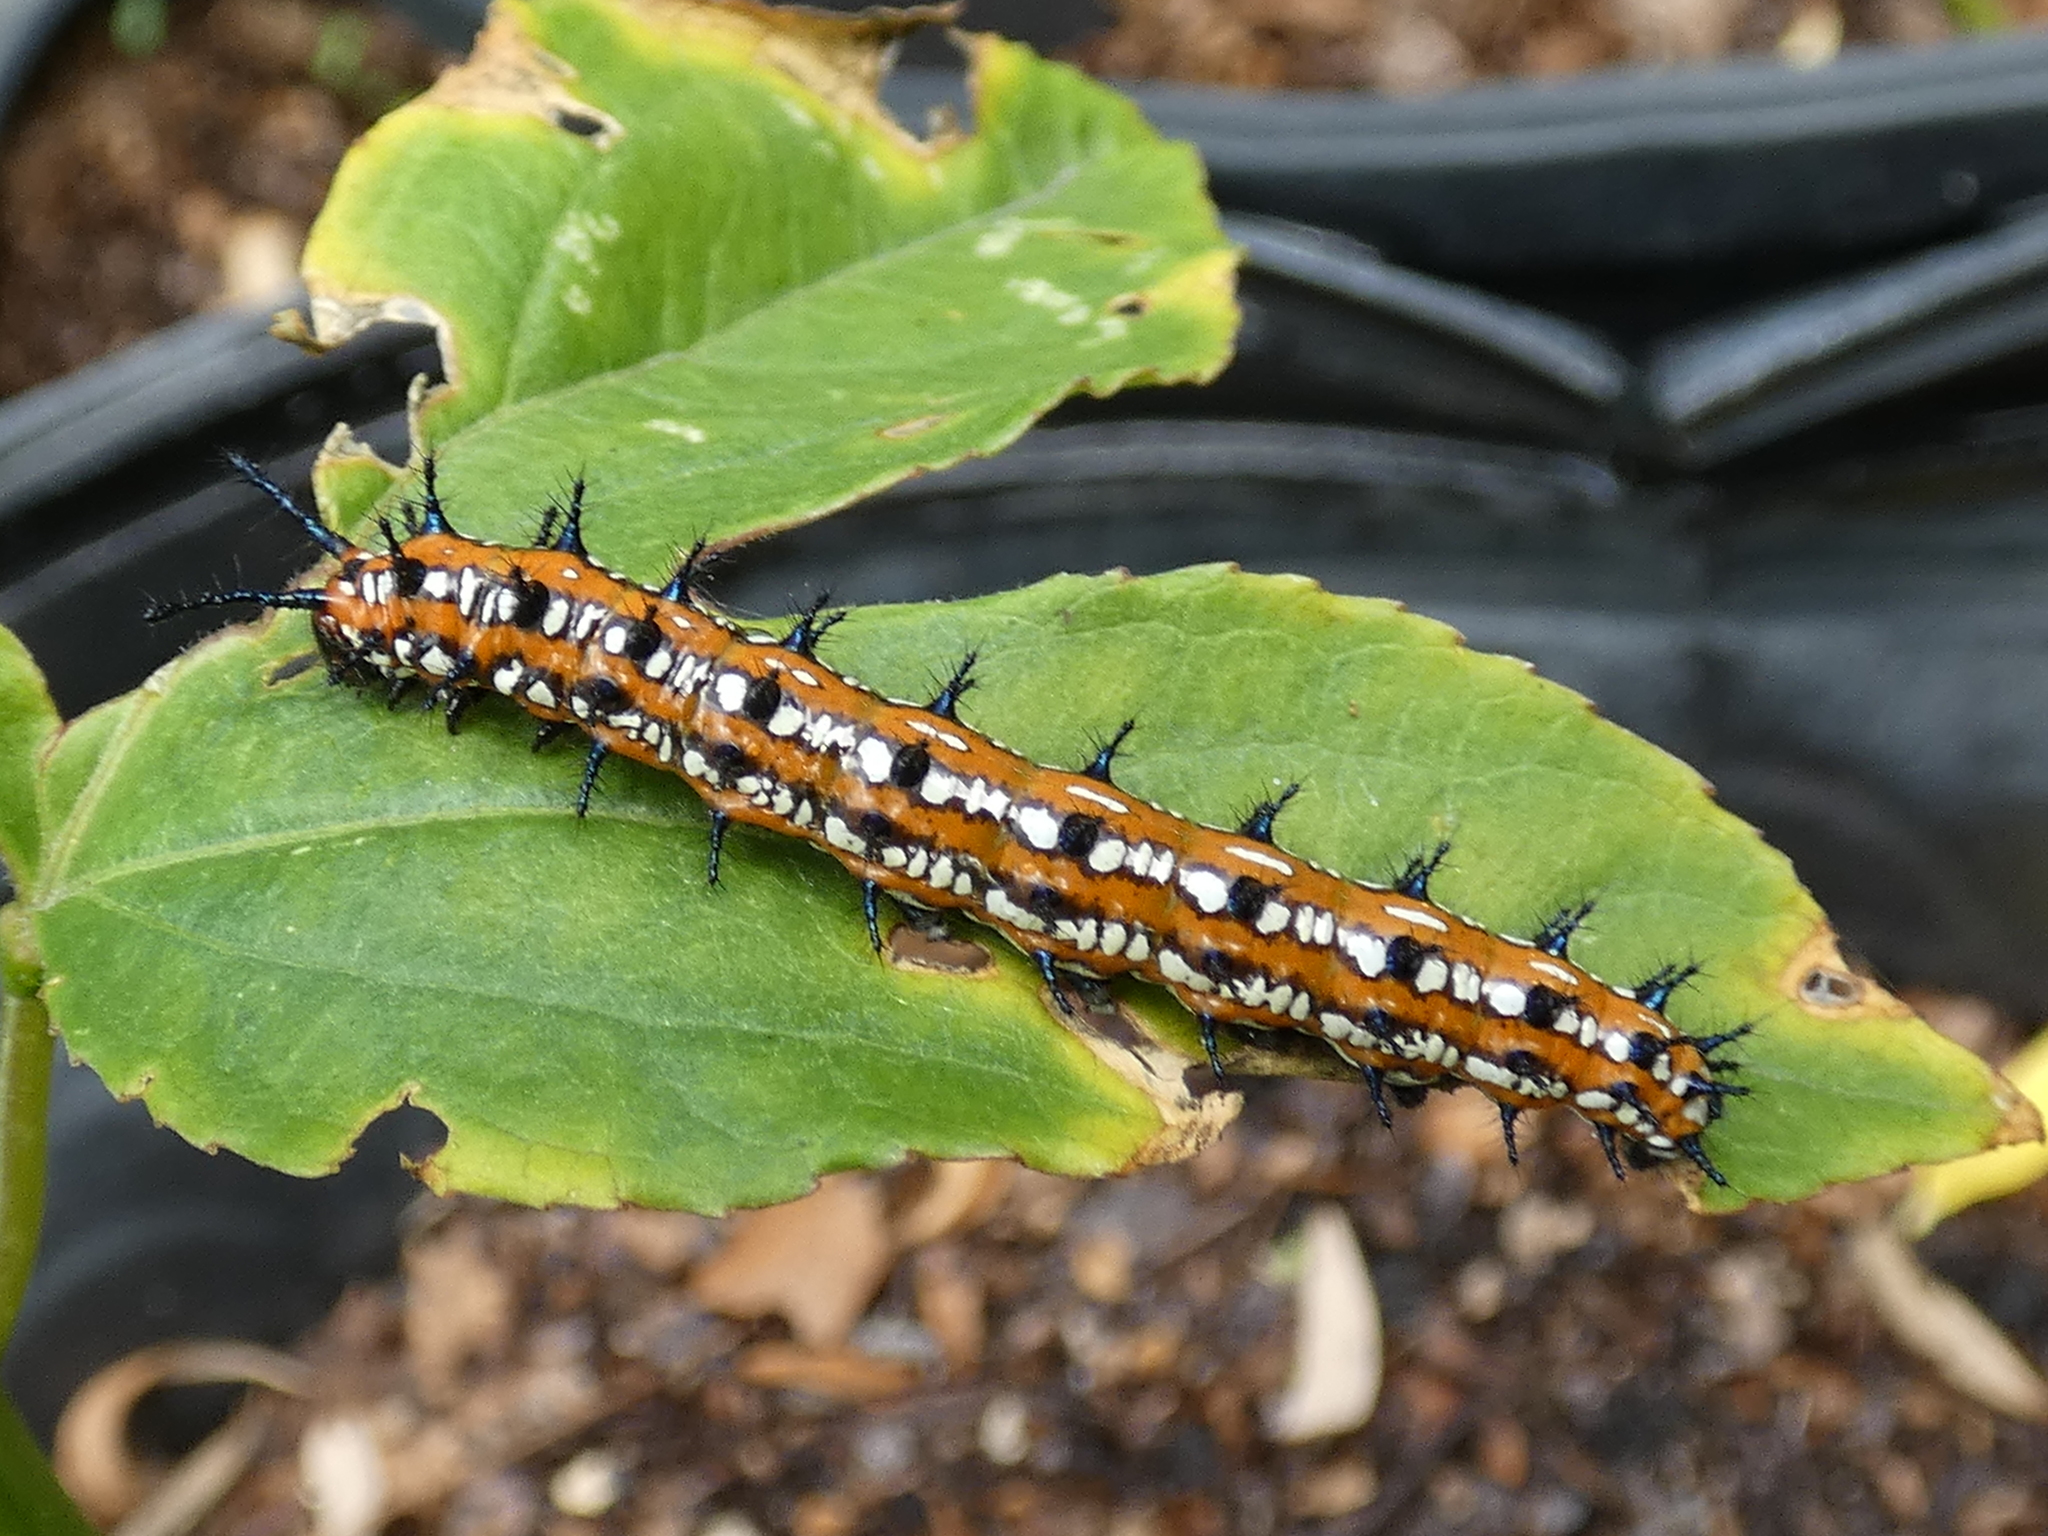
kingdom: Animalia
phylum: Arthropoda
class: Insecta
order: Lepidoptera
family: Nymphalidae
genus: Euptoieta
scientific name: Euptoieta claudia
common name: Variegated fritillary
